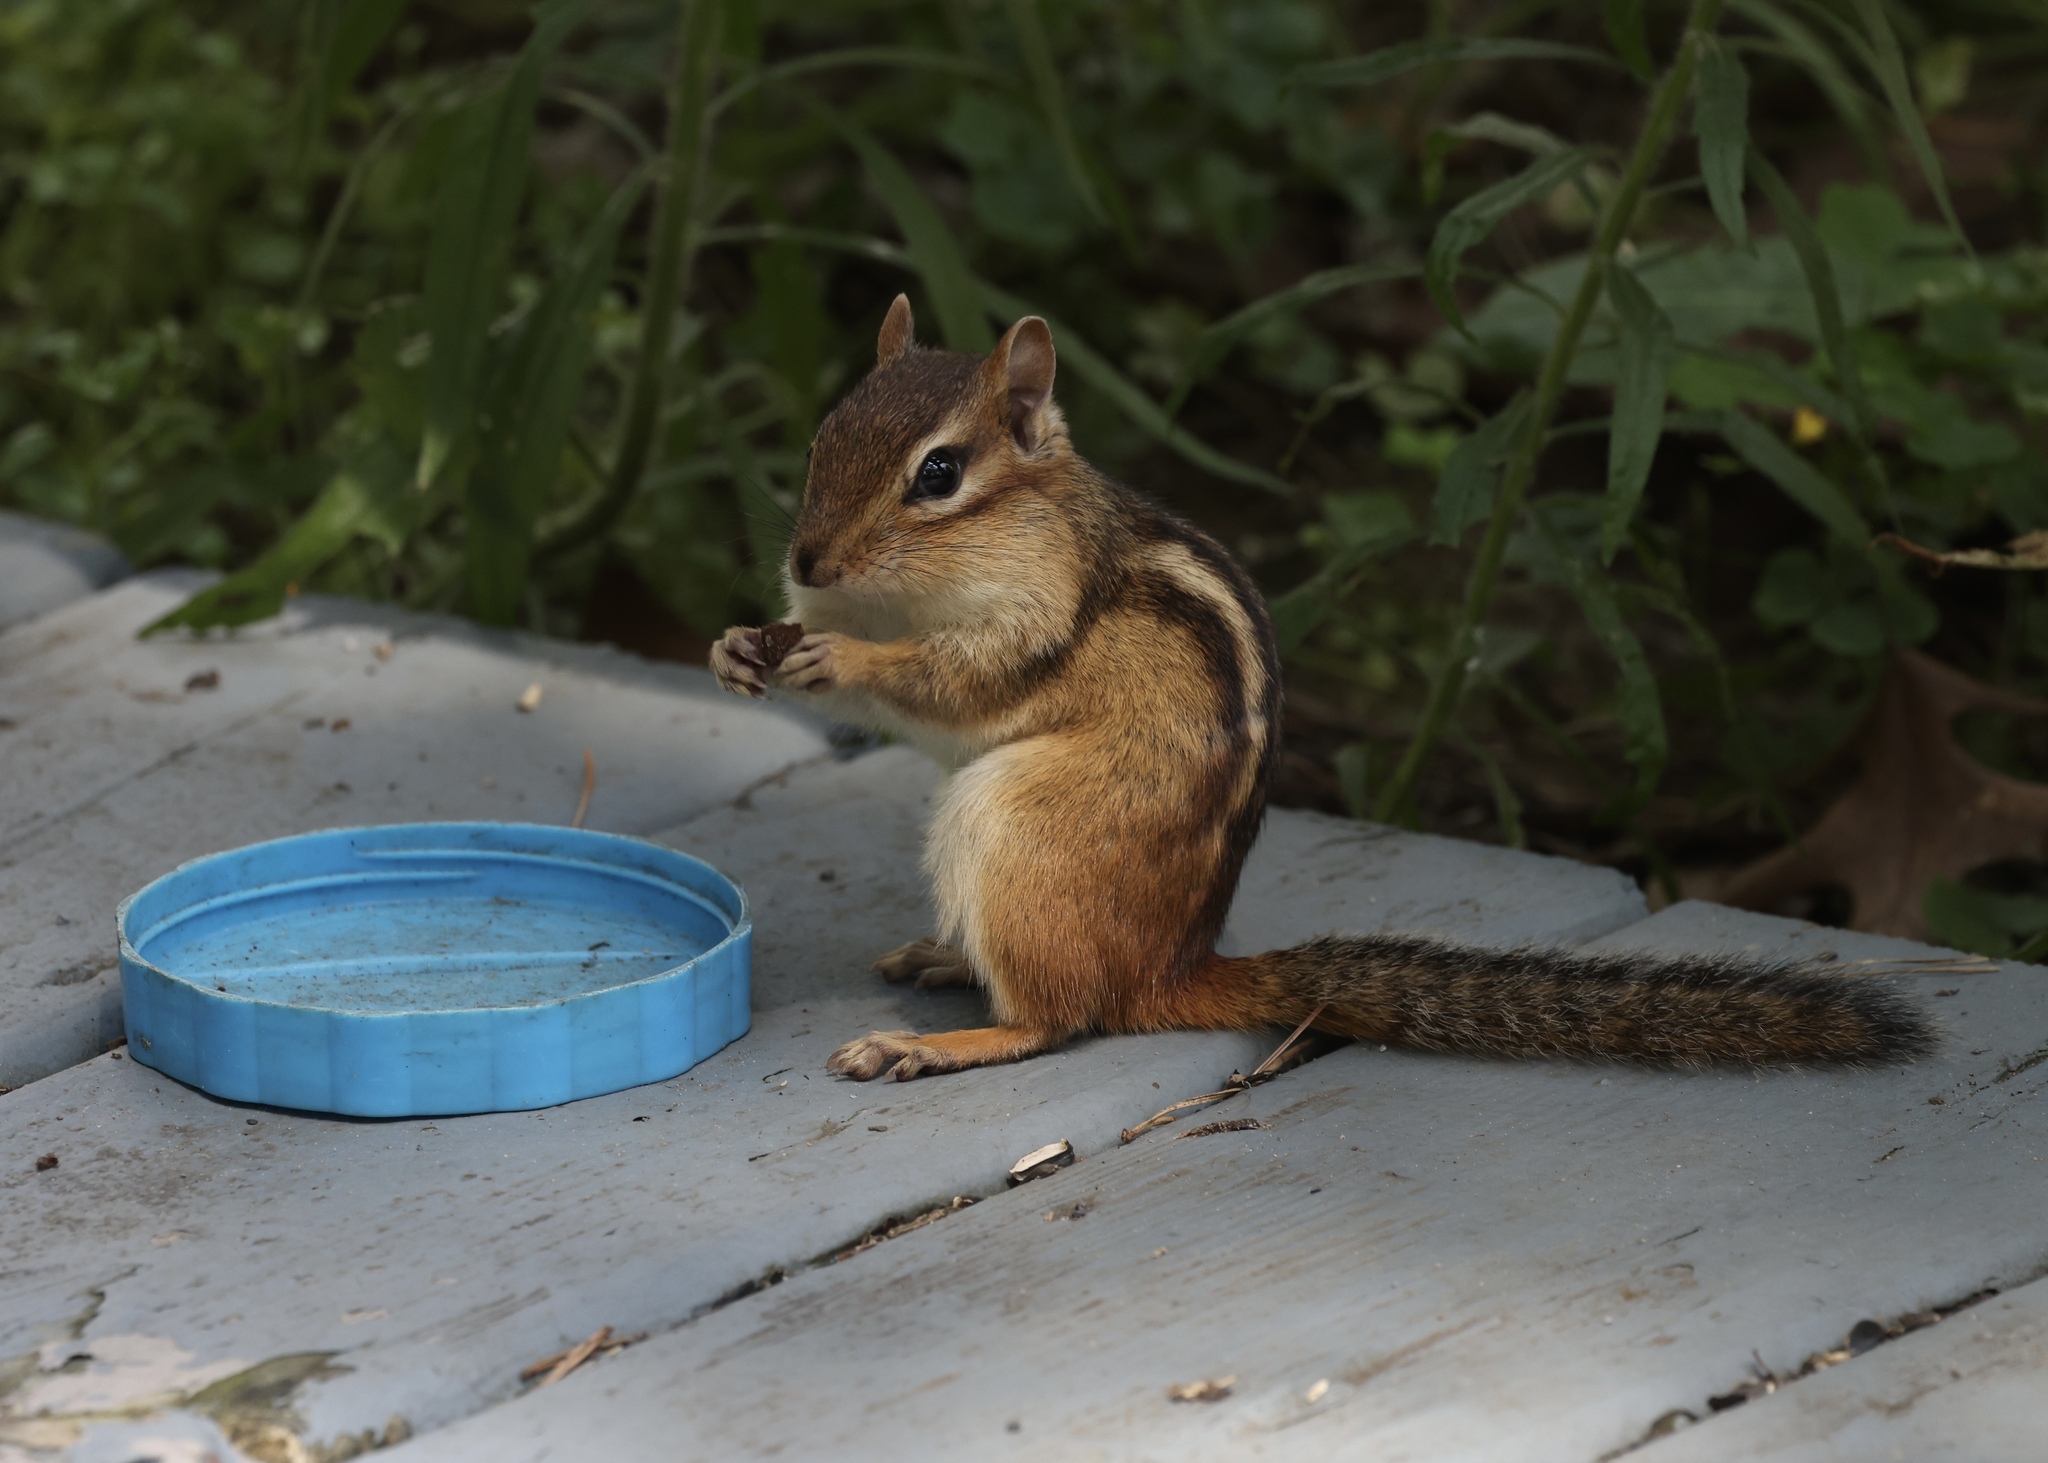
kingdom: Animalia
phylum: Chordata
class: Mammalia
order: Rodentia
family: Sciuridae
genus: Tamias
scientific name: Tamias striatus
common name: Eastern chipmunk
